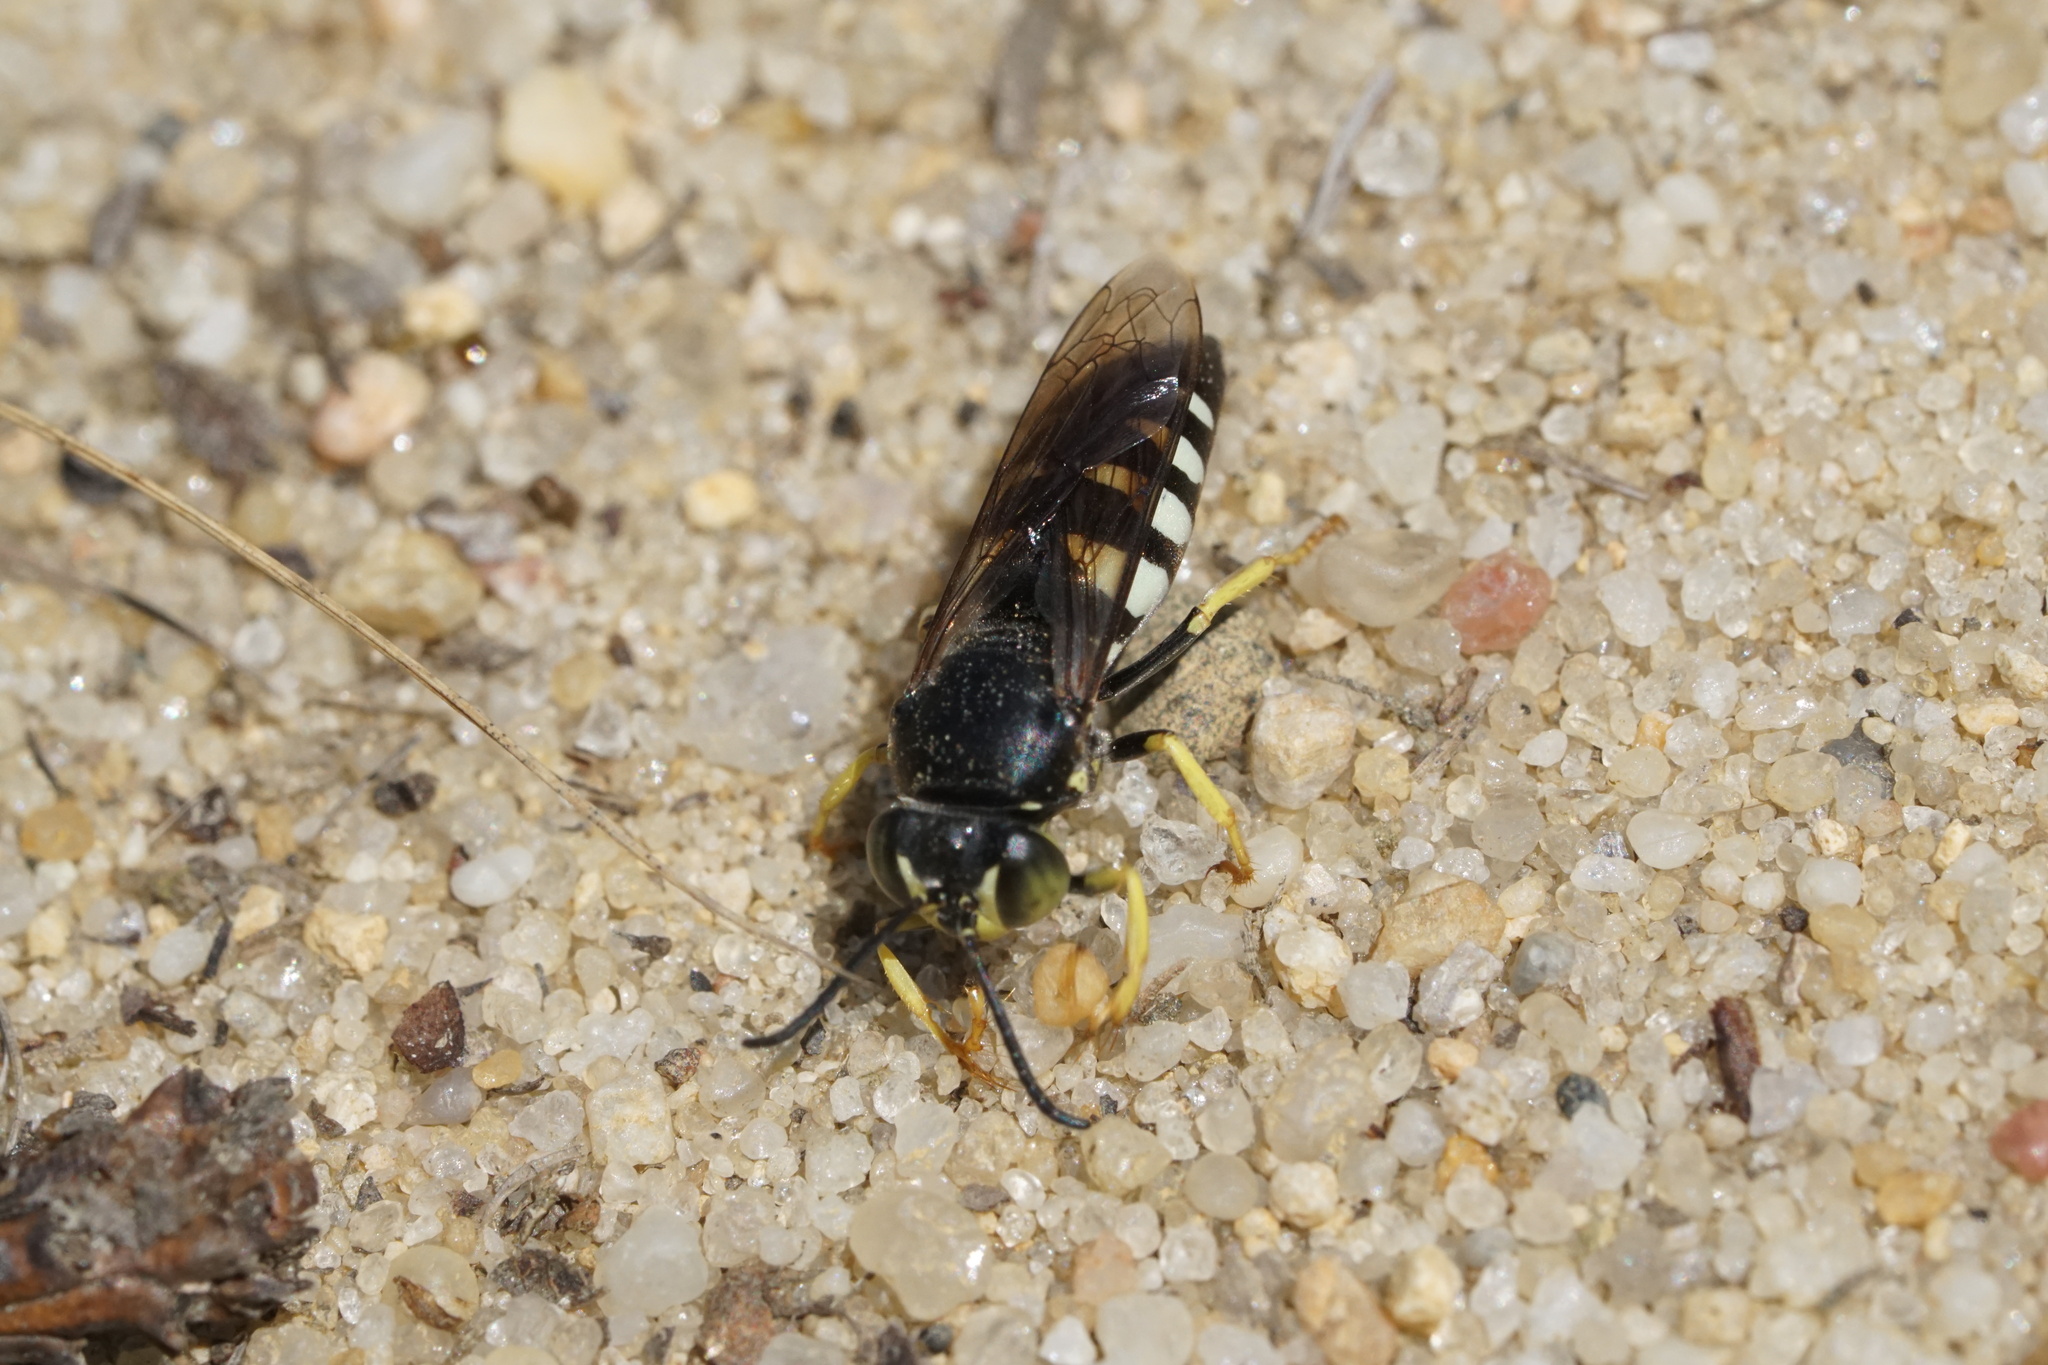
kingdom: Animalia
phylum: Arthropoda
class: Insecta
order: Hymenoptera
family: Crabronidae
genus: Bicyrtes
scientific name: Bicyrtes quadrifasciatus
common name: Four-banded stink bug hunter wasp
